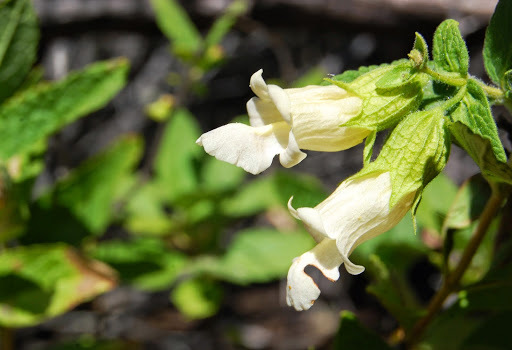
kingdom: Plantae
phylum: Tracheophyta
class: Magnoliopsida
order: Lamiales
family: Lamiaceae
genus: Lepechinia
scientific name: Lepechinia calycina
